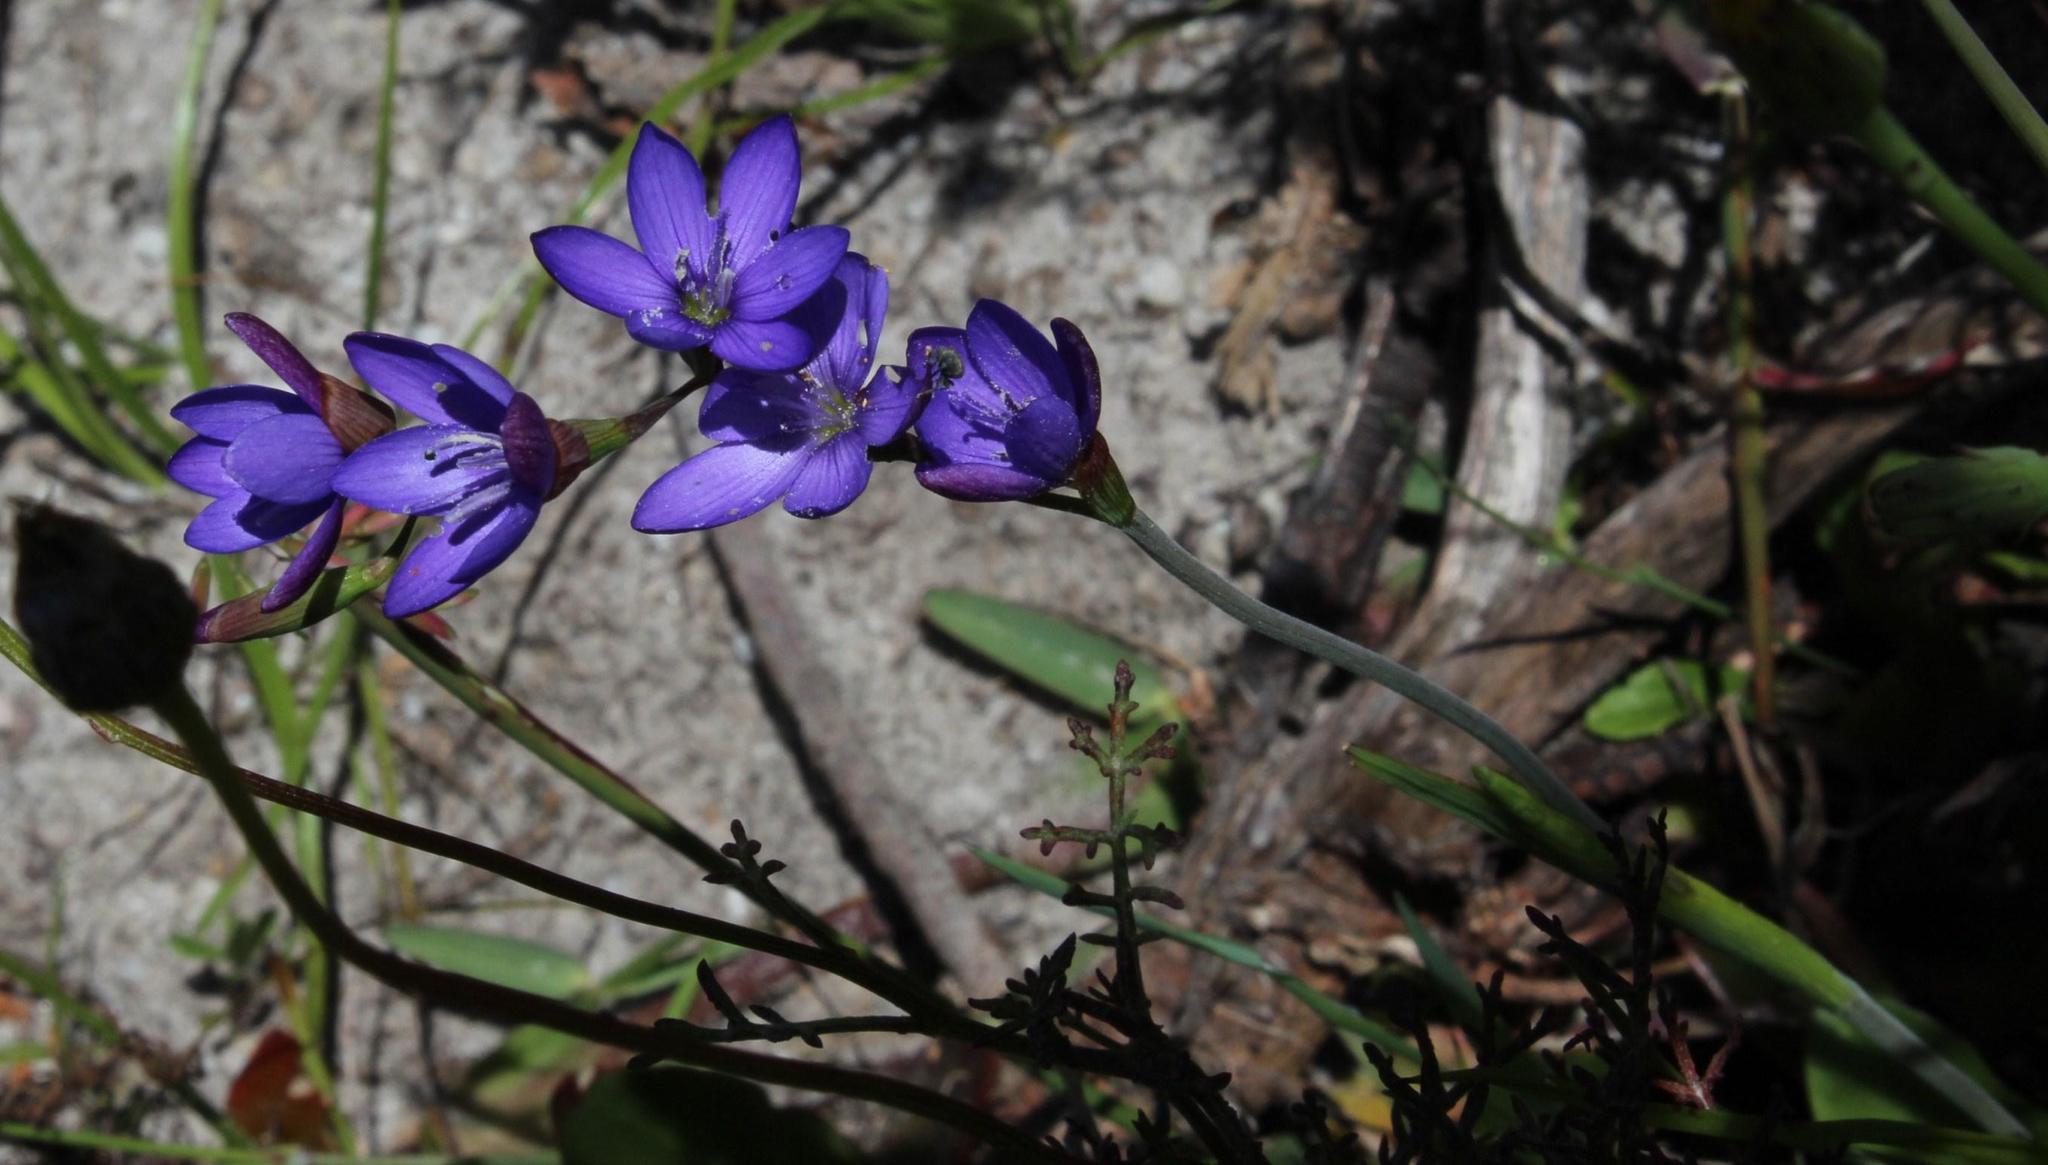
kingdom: Plantae
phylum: Tracheophyta
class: Liliopsida
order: Asparagales
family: Iridaceae
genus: Geissorhiza
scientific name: Geissorhiza aspera
